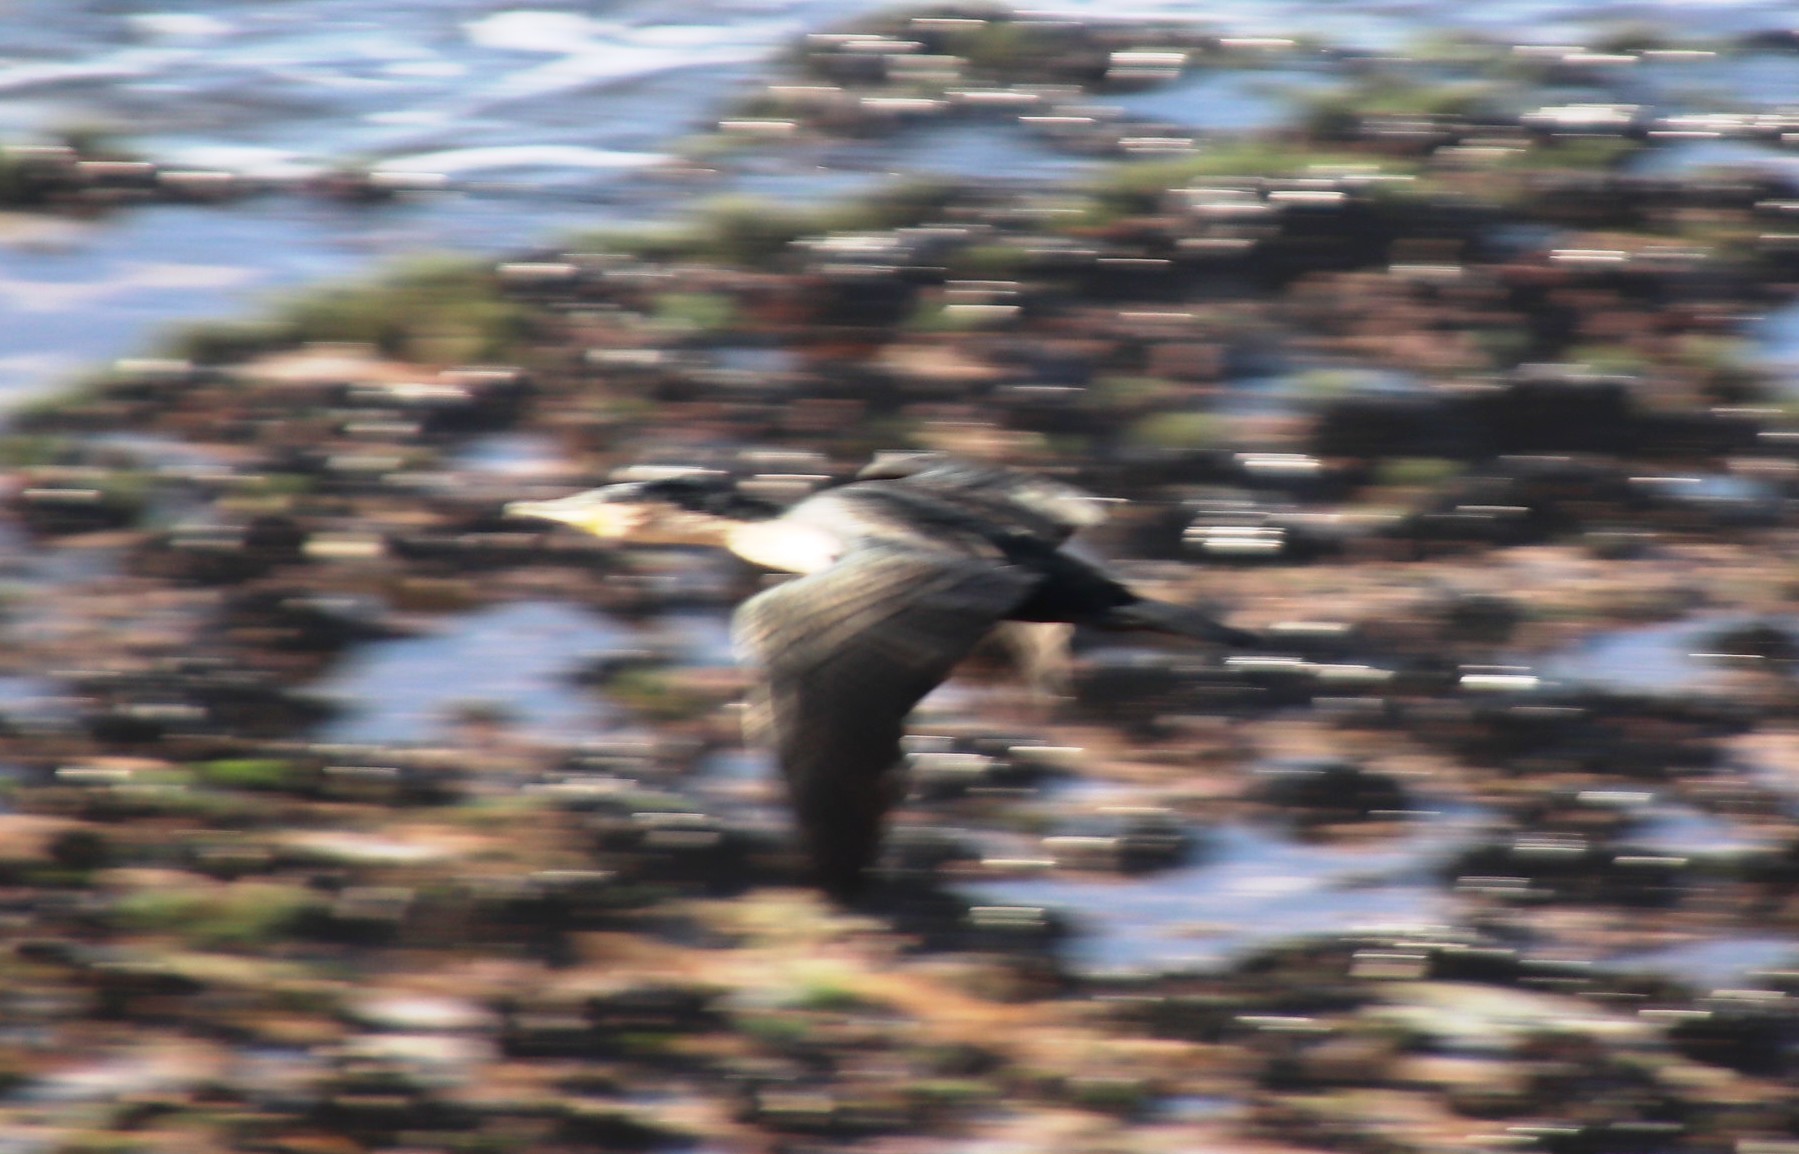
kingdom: Animalia
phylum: Chordata
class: Aves
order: Suliformes
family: Phalacrocoracidae
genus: Phalacrocorax
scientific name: Phalacrocorax carbo
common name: Great cormorant
